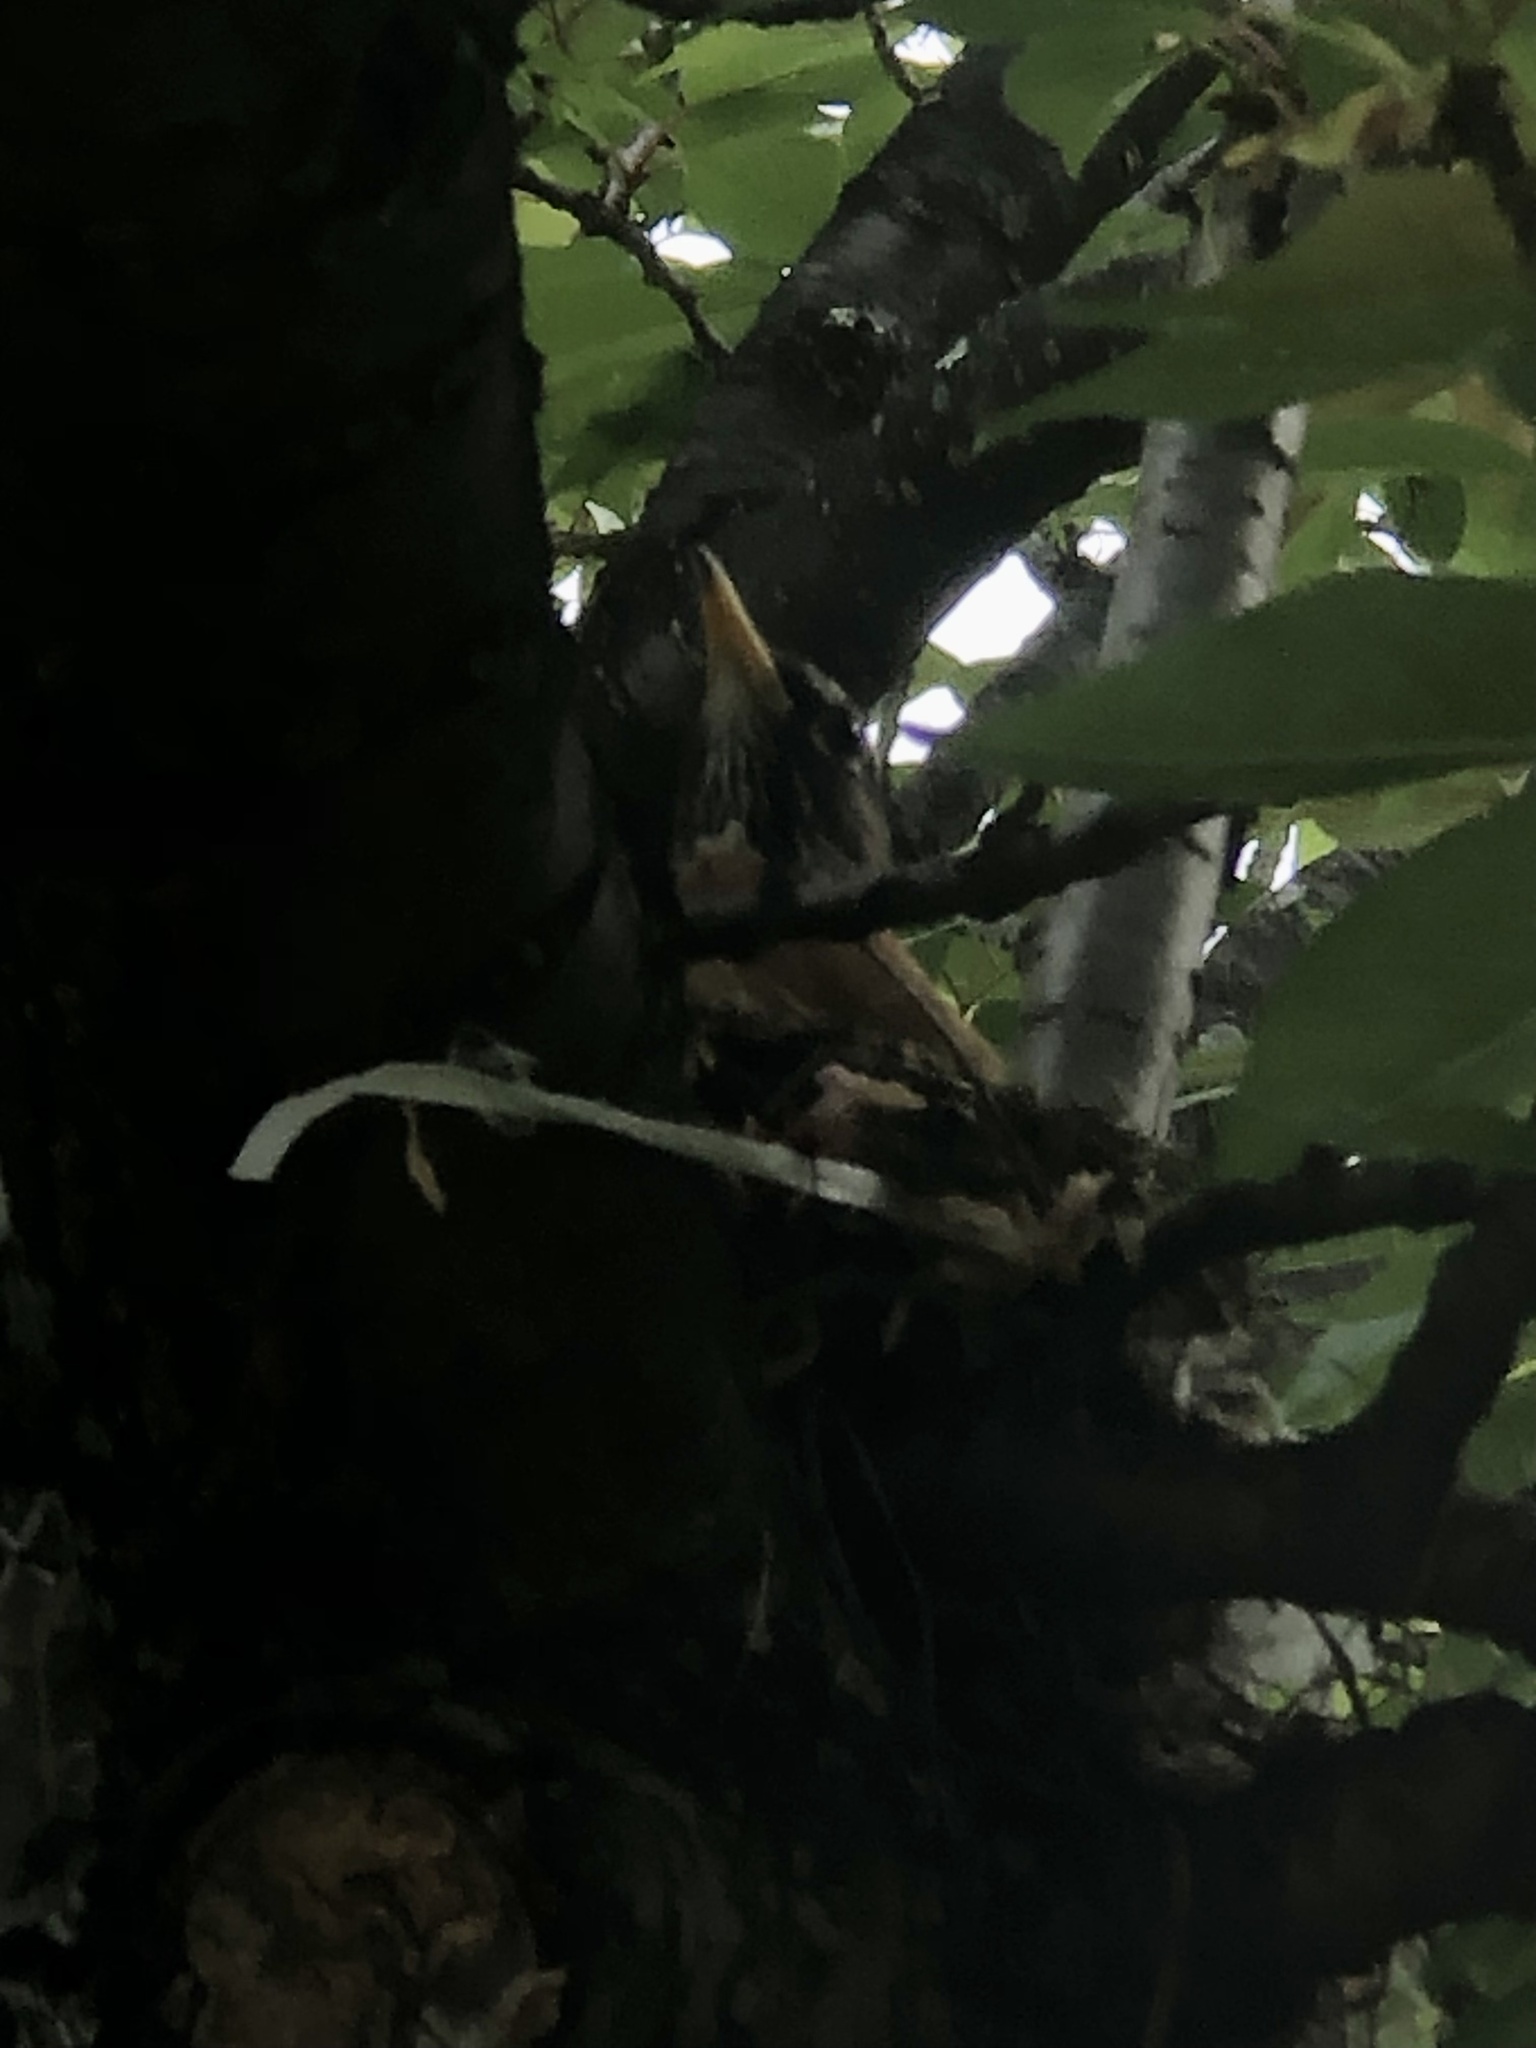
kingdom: Animalia
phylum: Chordata
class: Aves
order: Passeriformes
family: Turdidae
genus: Turdus
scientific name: Turdus migratorius
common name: American robin
